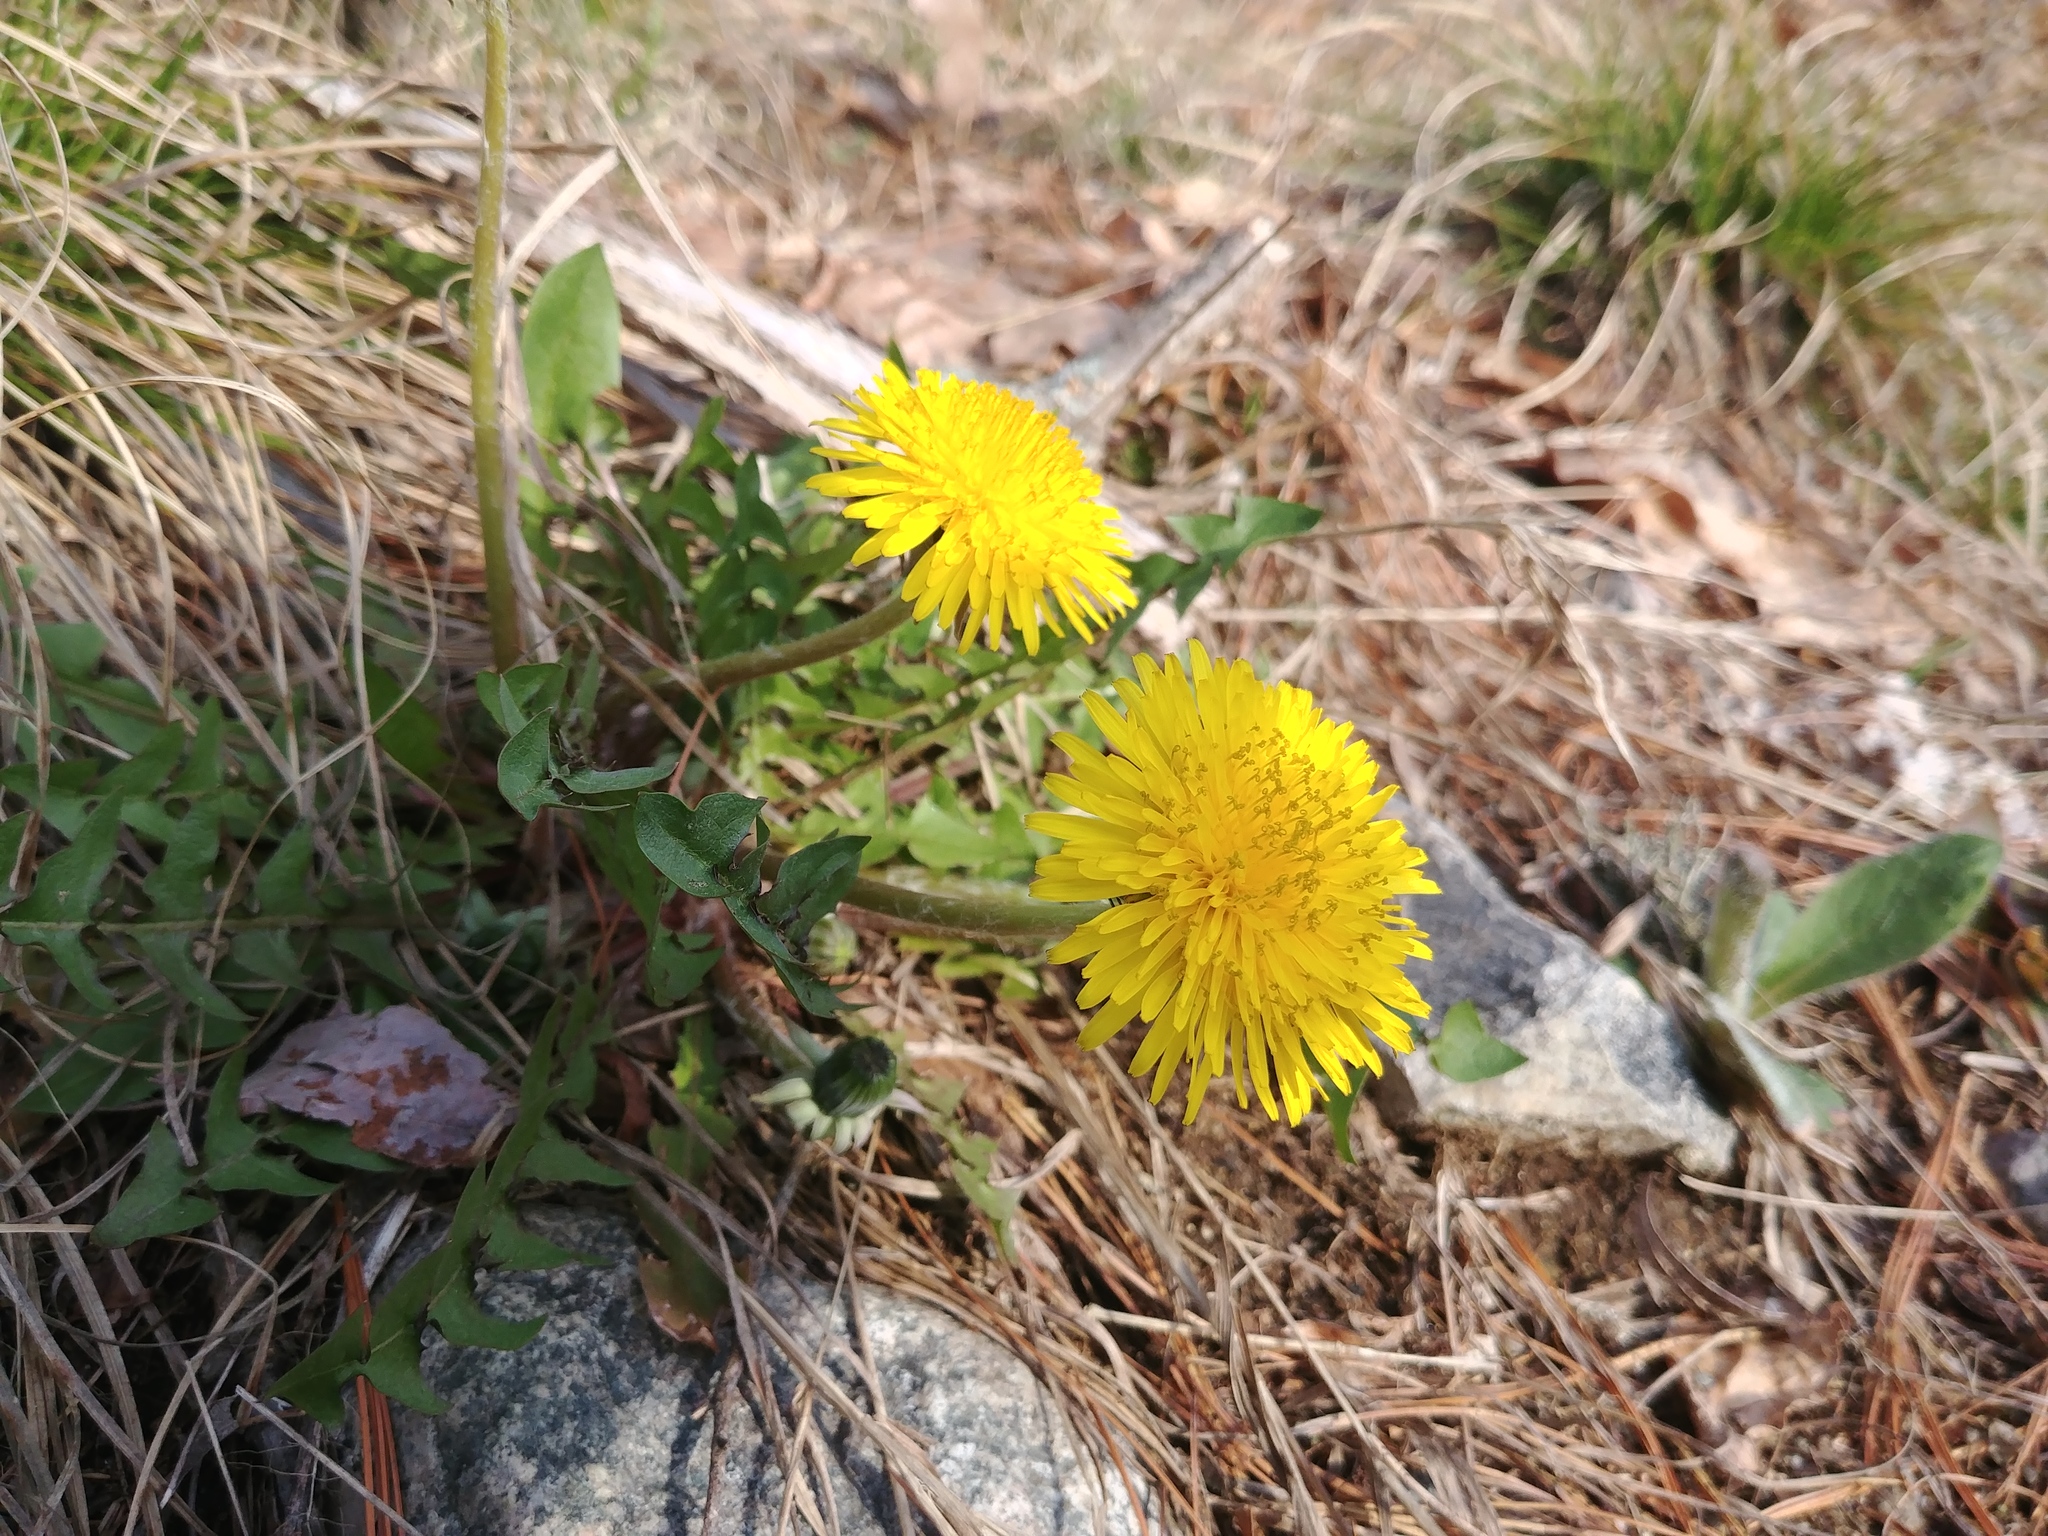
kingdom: Plantae
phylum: Tracheophyta
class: Magnoliopsida
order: Asterales
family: Asteraceae
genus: Taraxacum
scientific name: Taraxacum officinale
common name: Common dandelion
